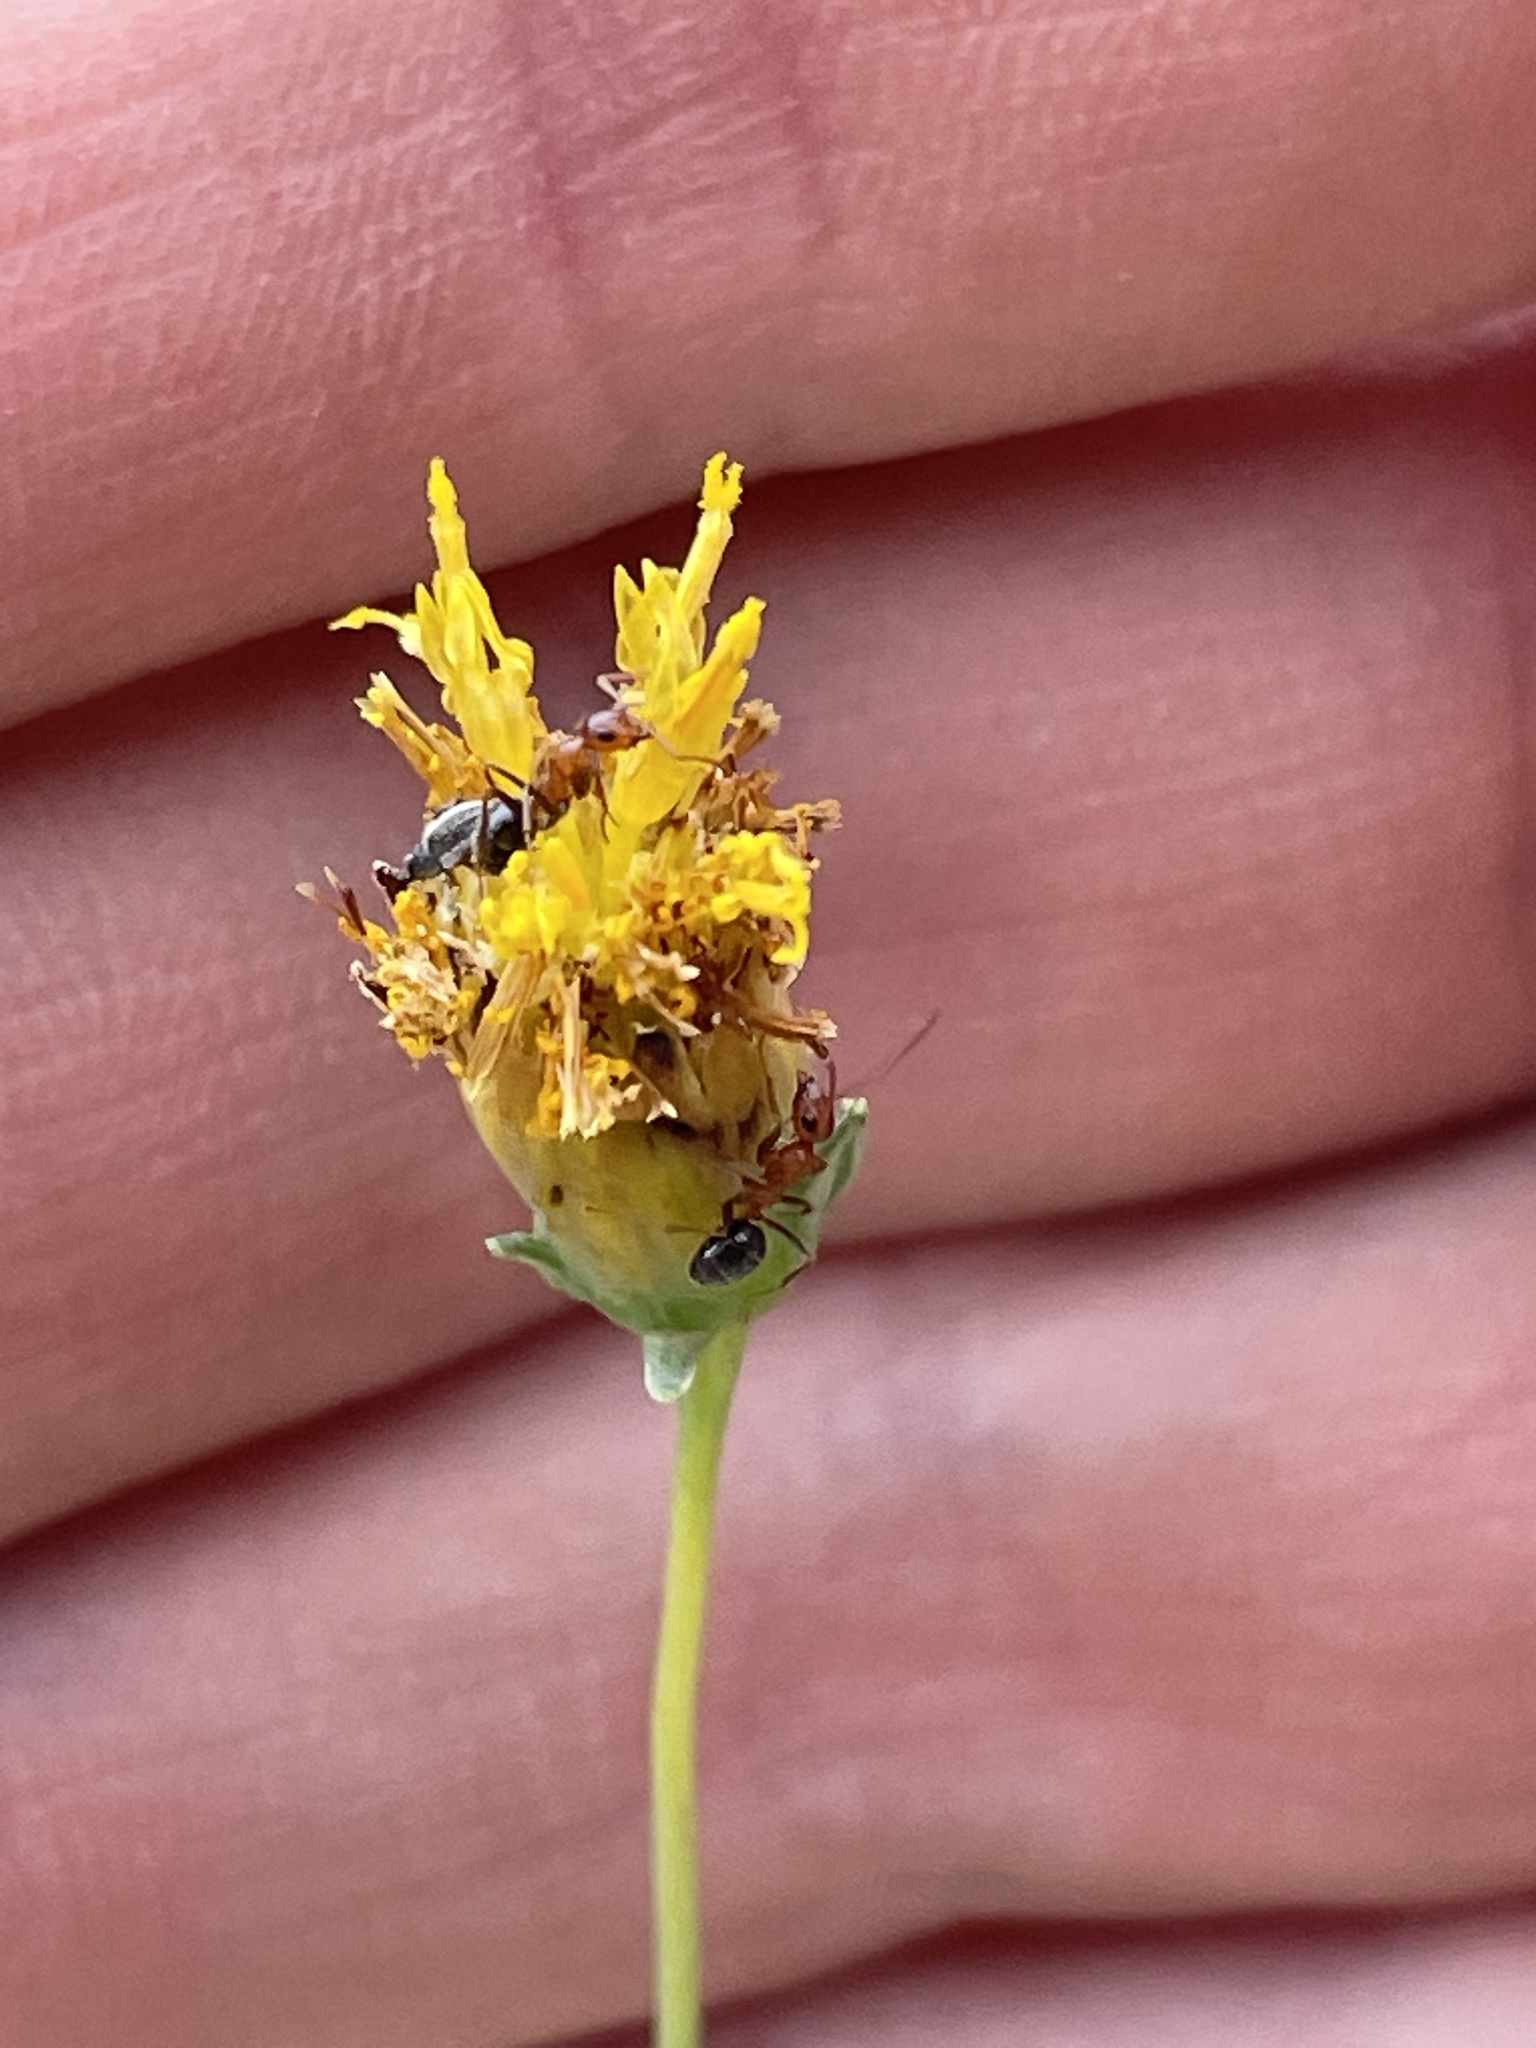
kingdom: Plantae
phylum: Tracheophyta
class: Magnoliopsida
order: Asterales
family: Asteraceae
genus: Thelesperma
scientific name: Thelesperma megapotamicum
